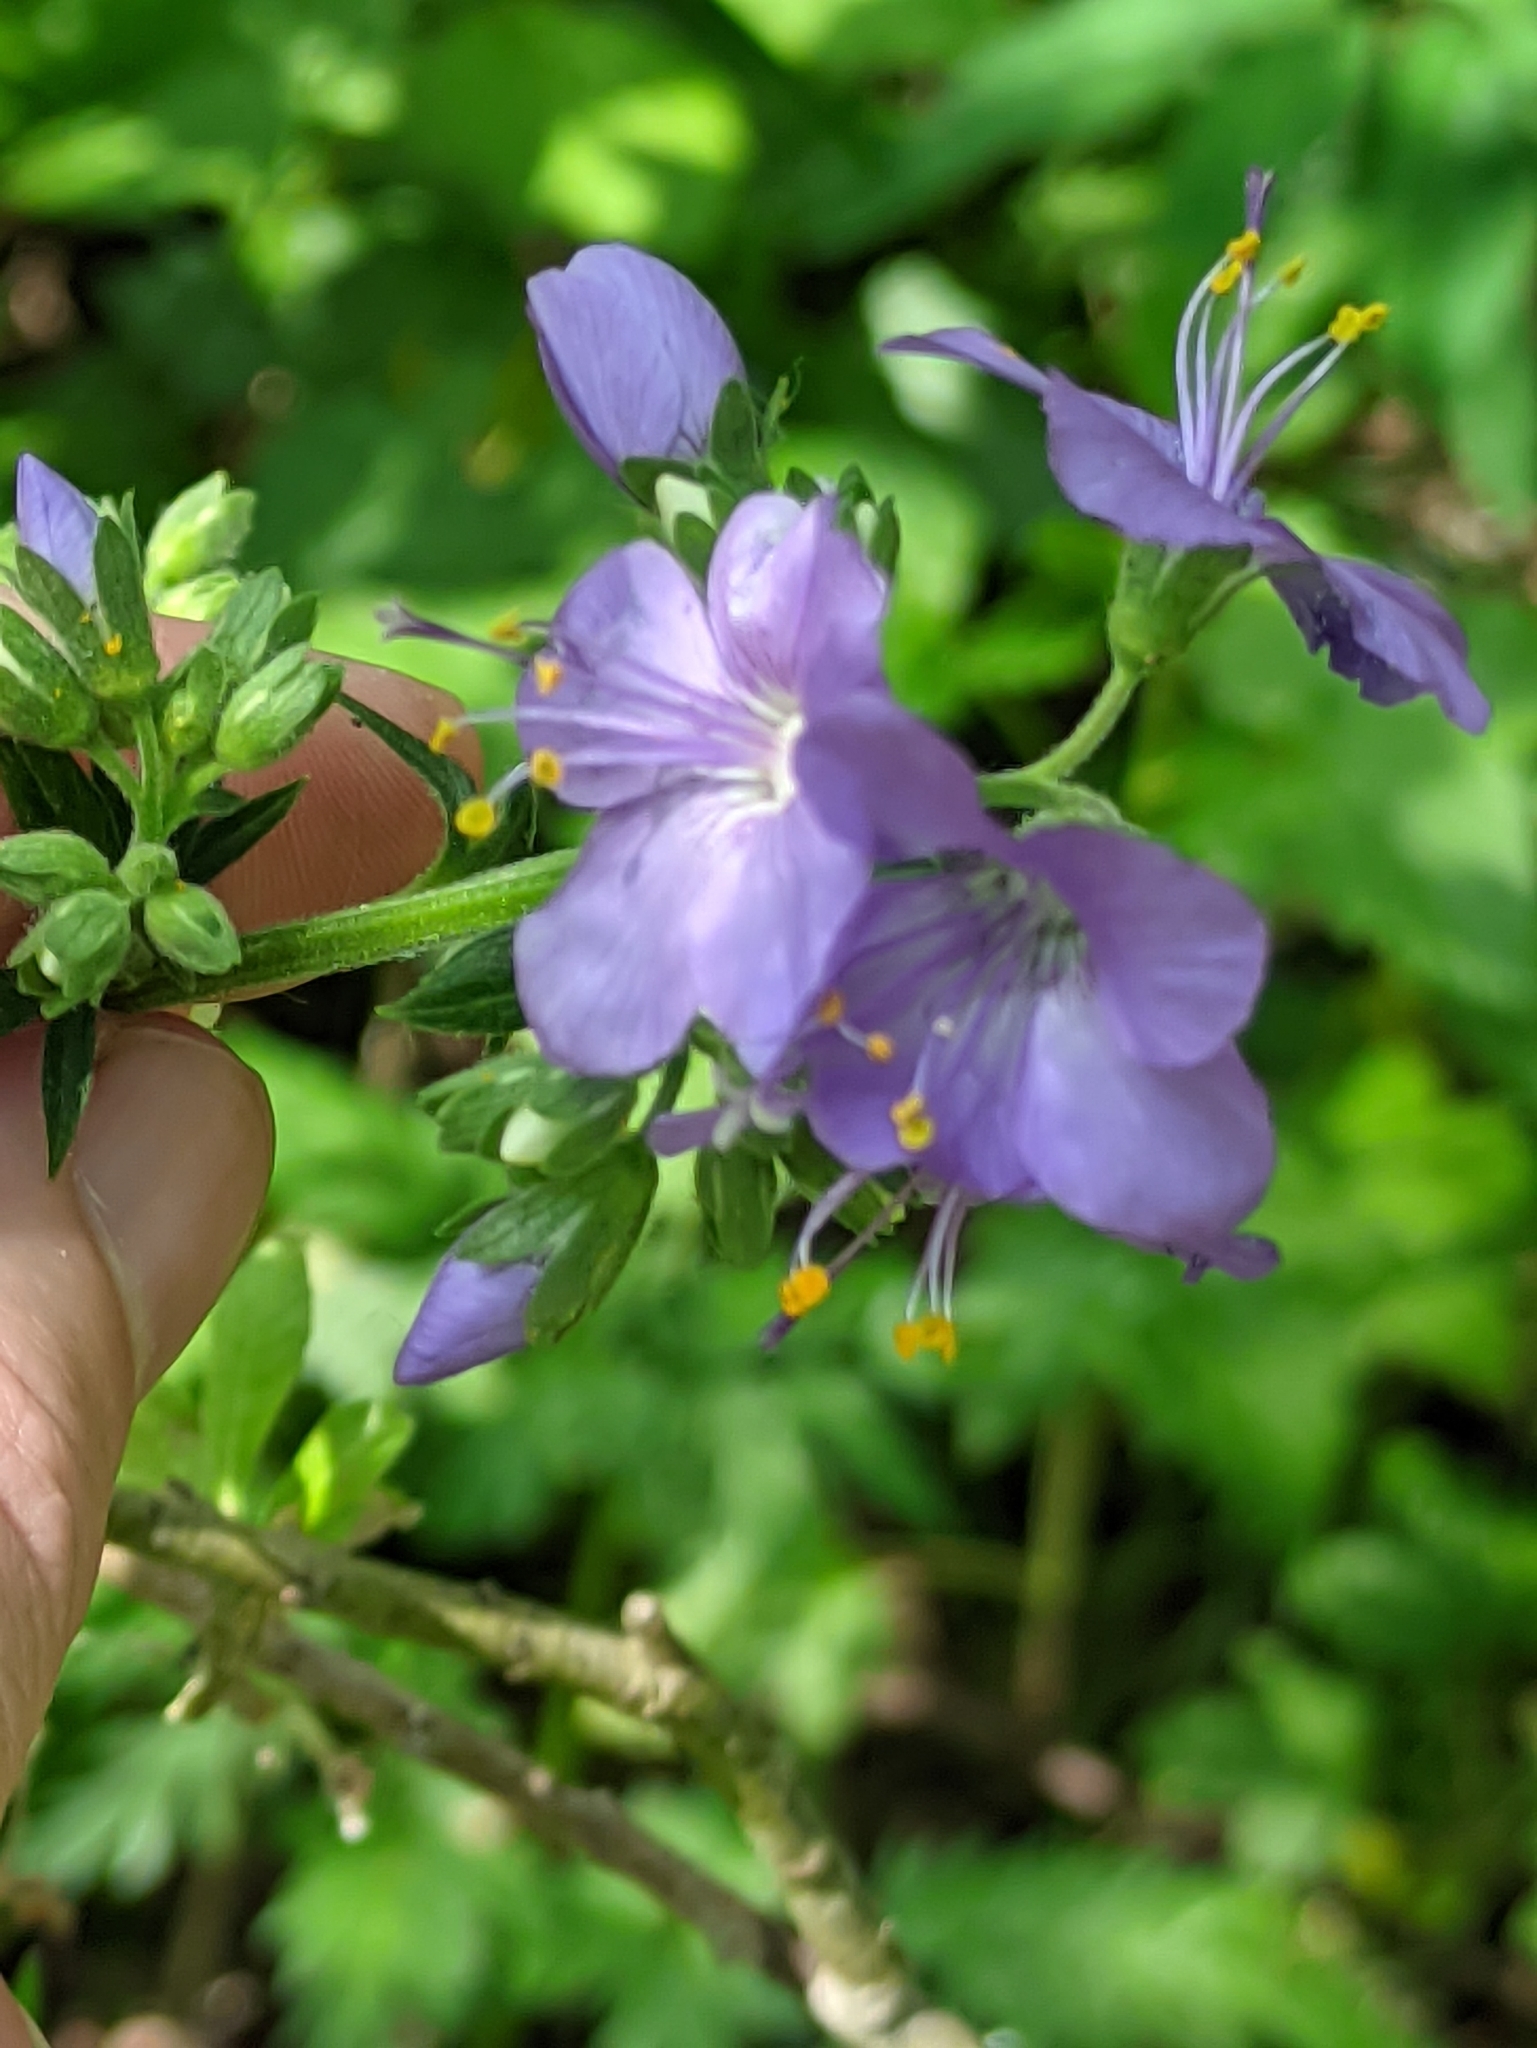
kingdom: Plantae
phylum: Tracheophyta
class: Magnoliopsida
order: Ericales
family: Polemoniaceae
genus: Polemonium
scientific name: Polemonium caeruleum
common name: Jacob's-ladder
